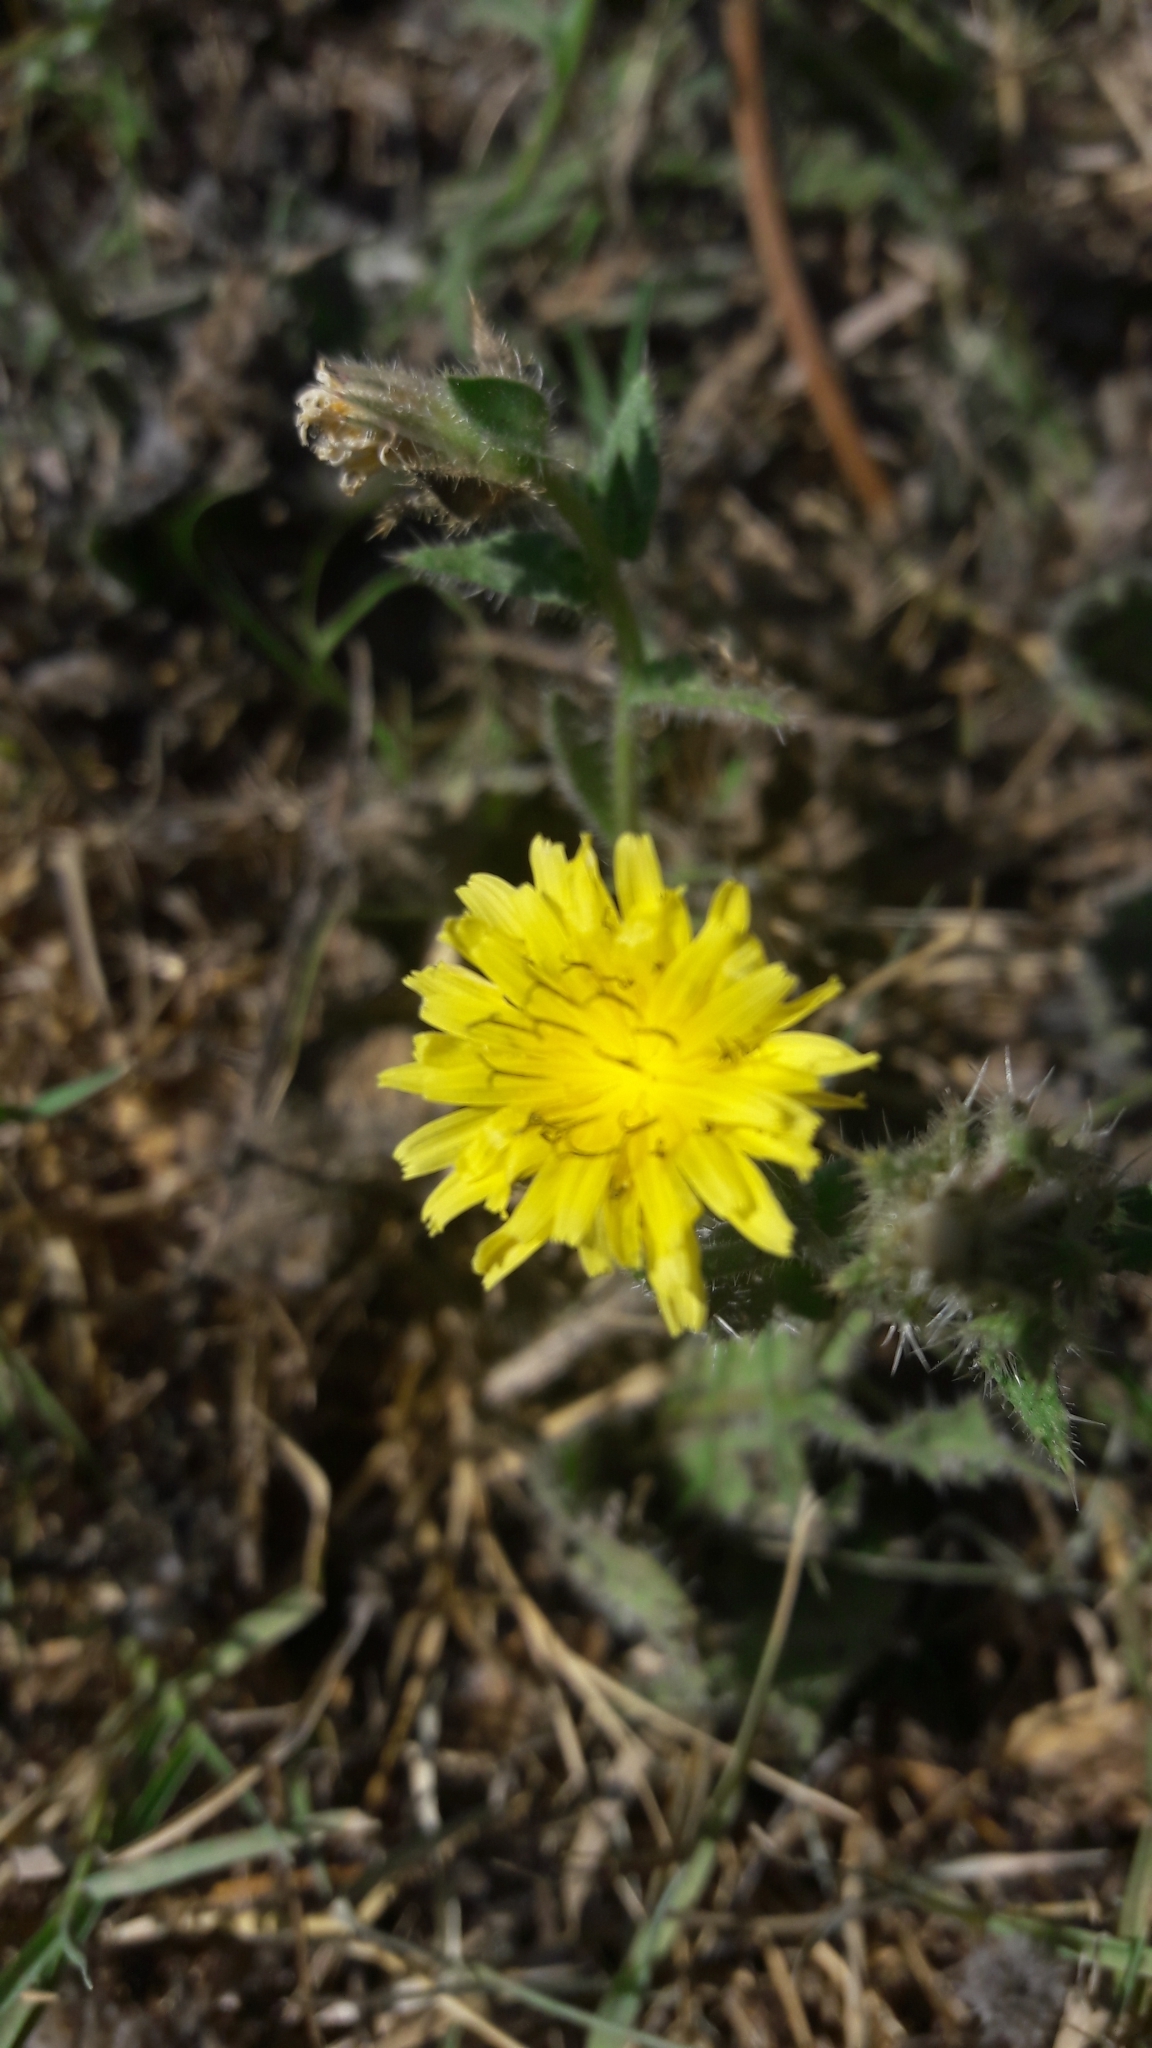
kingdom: Plantae
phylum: Tracheophyta
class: Magnoliopsida
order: Asterales
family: Asteraceae
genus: Helminthotheca
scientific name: Helminthotheca echioides
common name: Ox-tongue
